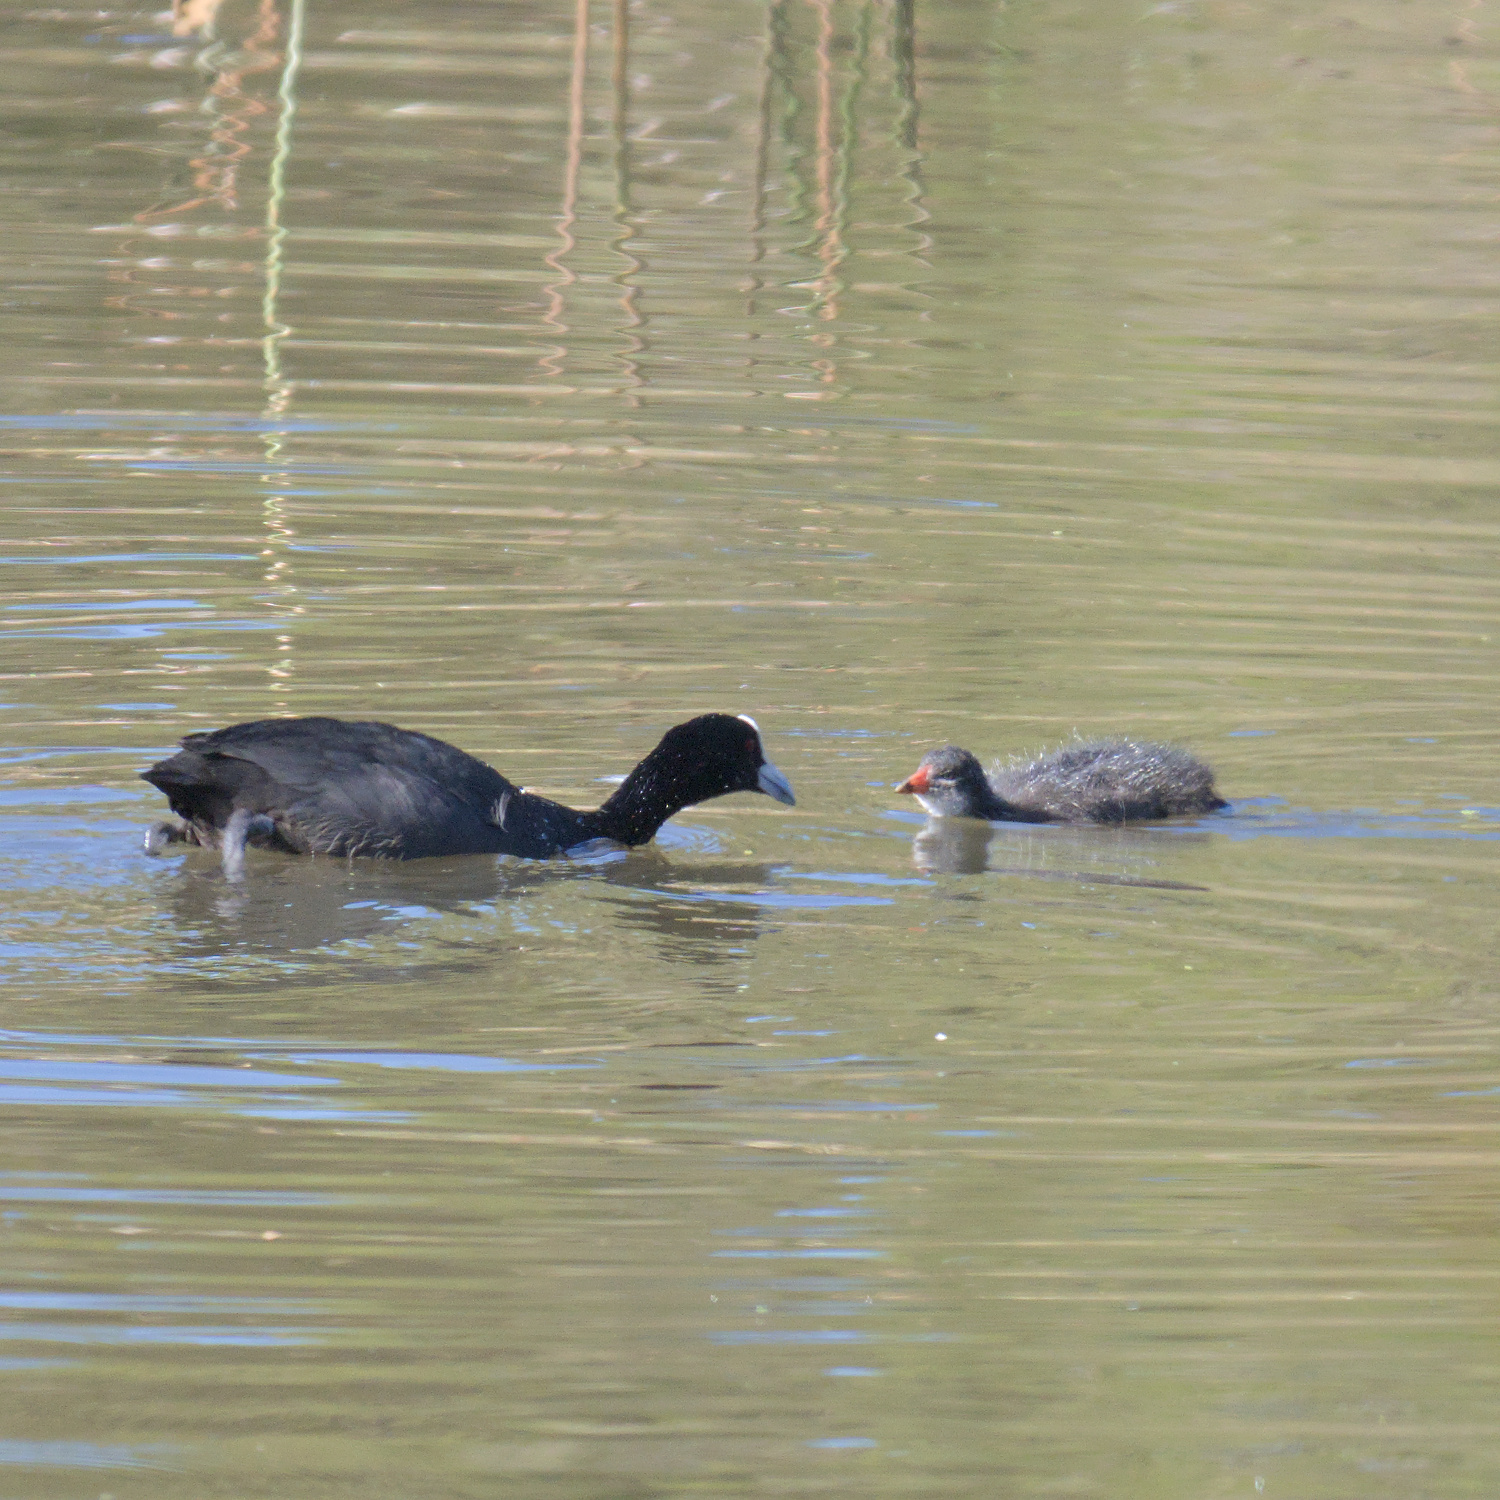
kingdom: Animalia
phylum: Chordata
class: Aves
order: Gruiformes
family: Rallidae
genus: Fulica
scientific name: Fulica atra
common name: Eurasian coot
